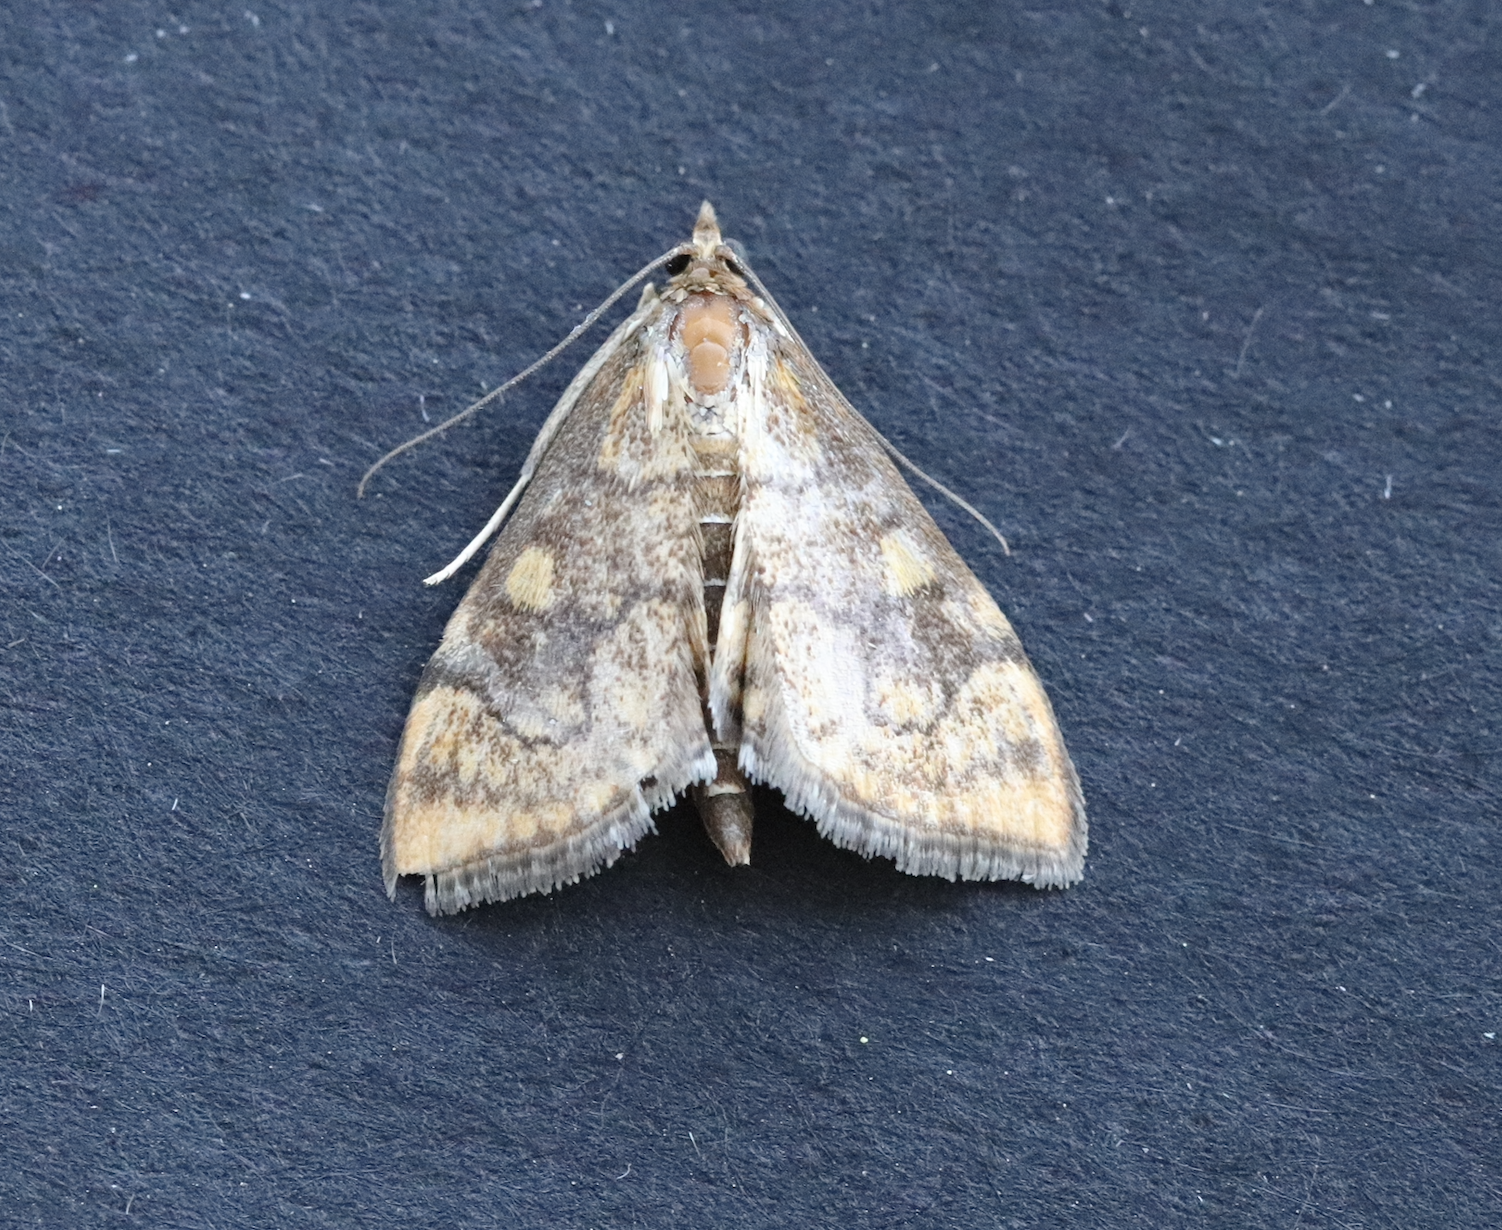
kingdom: Animalia
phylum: Arthropoda
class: Insecta
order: Lepidoptera
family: Crambidae
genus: Anania
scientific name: Anania verbascalis
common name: Golden pearl
